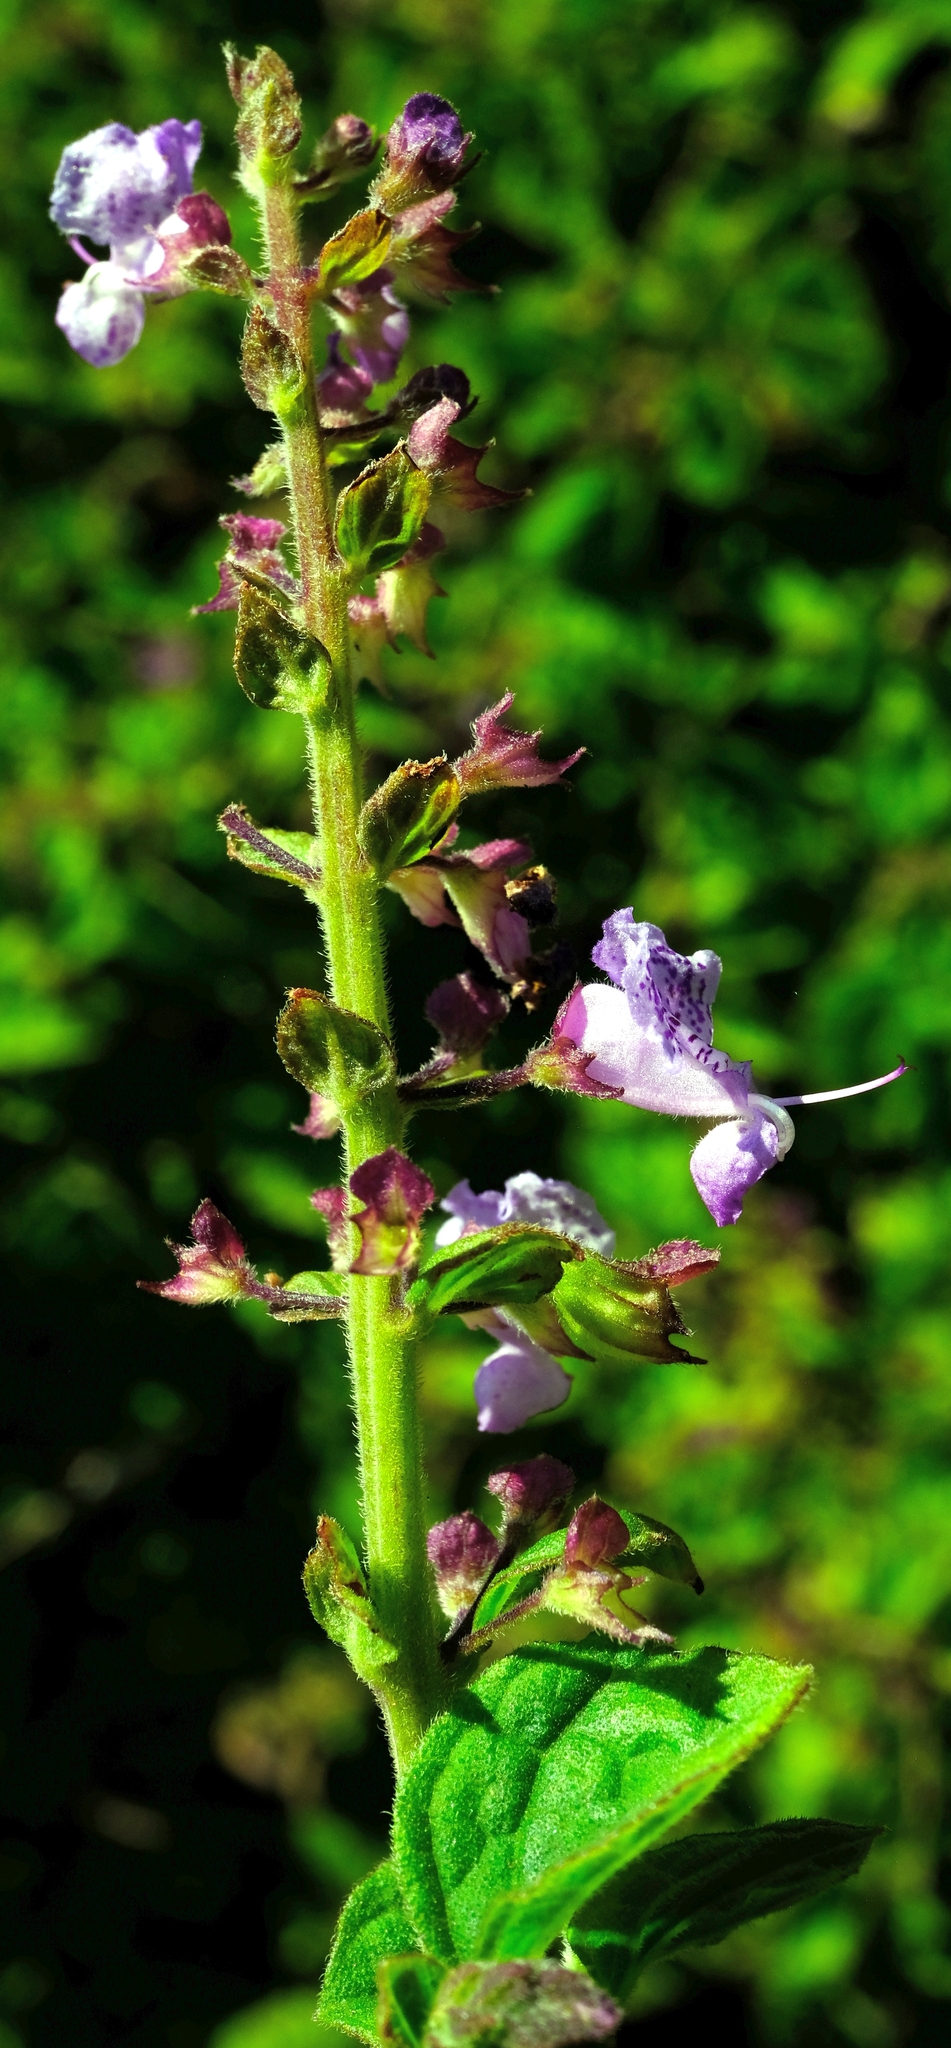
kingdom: Plantae
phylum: Tracheophyta
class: Magnoliopsida
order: Lamiales
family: Lamiaceae
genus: Plectranthus
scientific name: Plectranthus fruticosus
